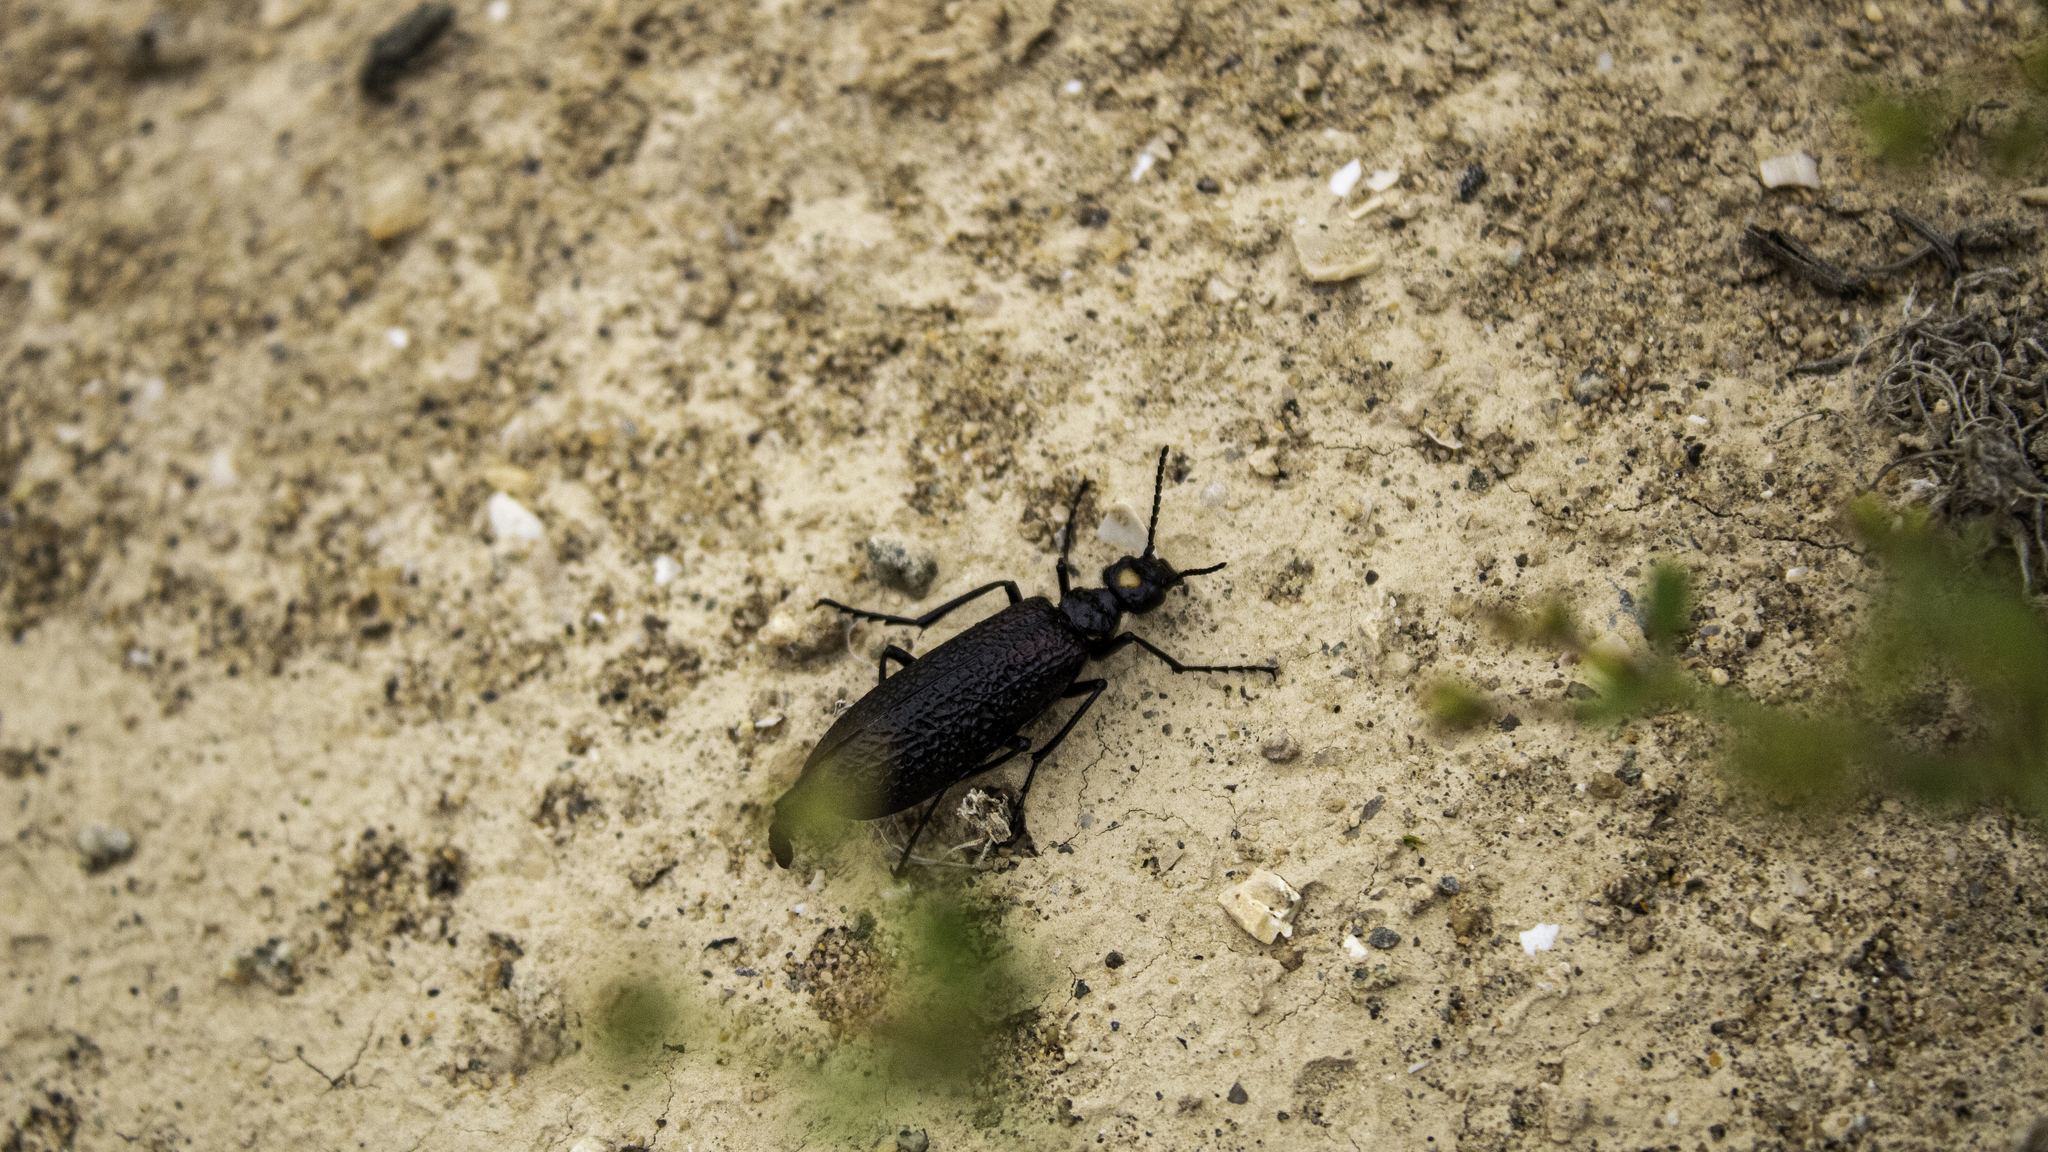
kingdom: Animalia
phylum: Arthropoda
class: Insecta
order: Coleoptera
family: Meloidae
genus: Dictyolytta
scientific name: Dictyolytta
